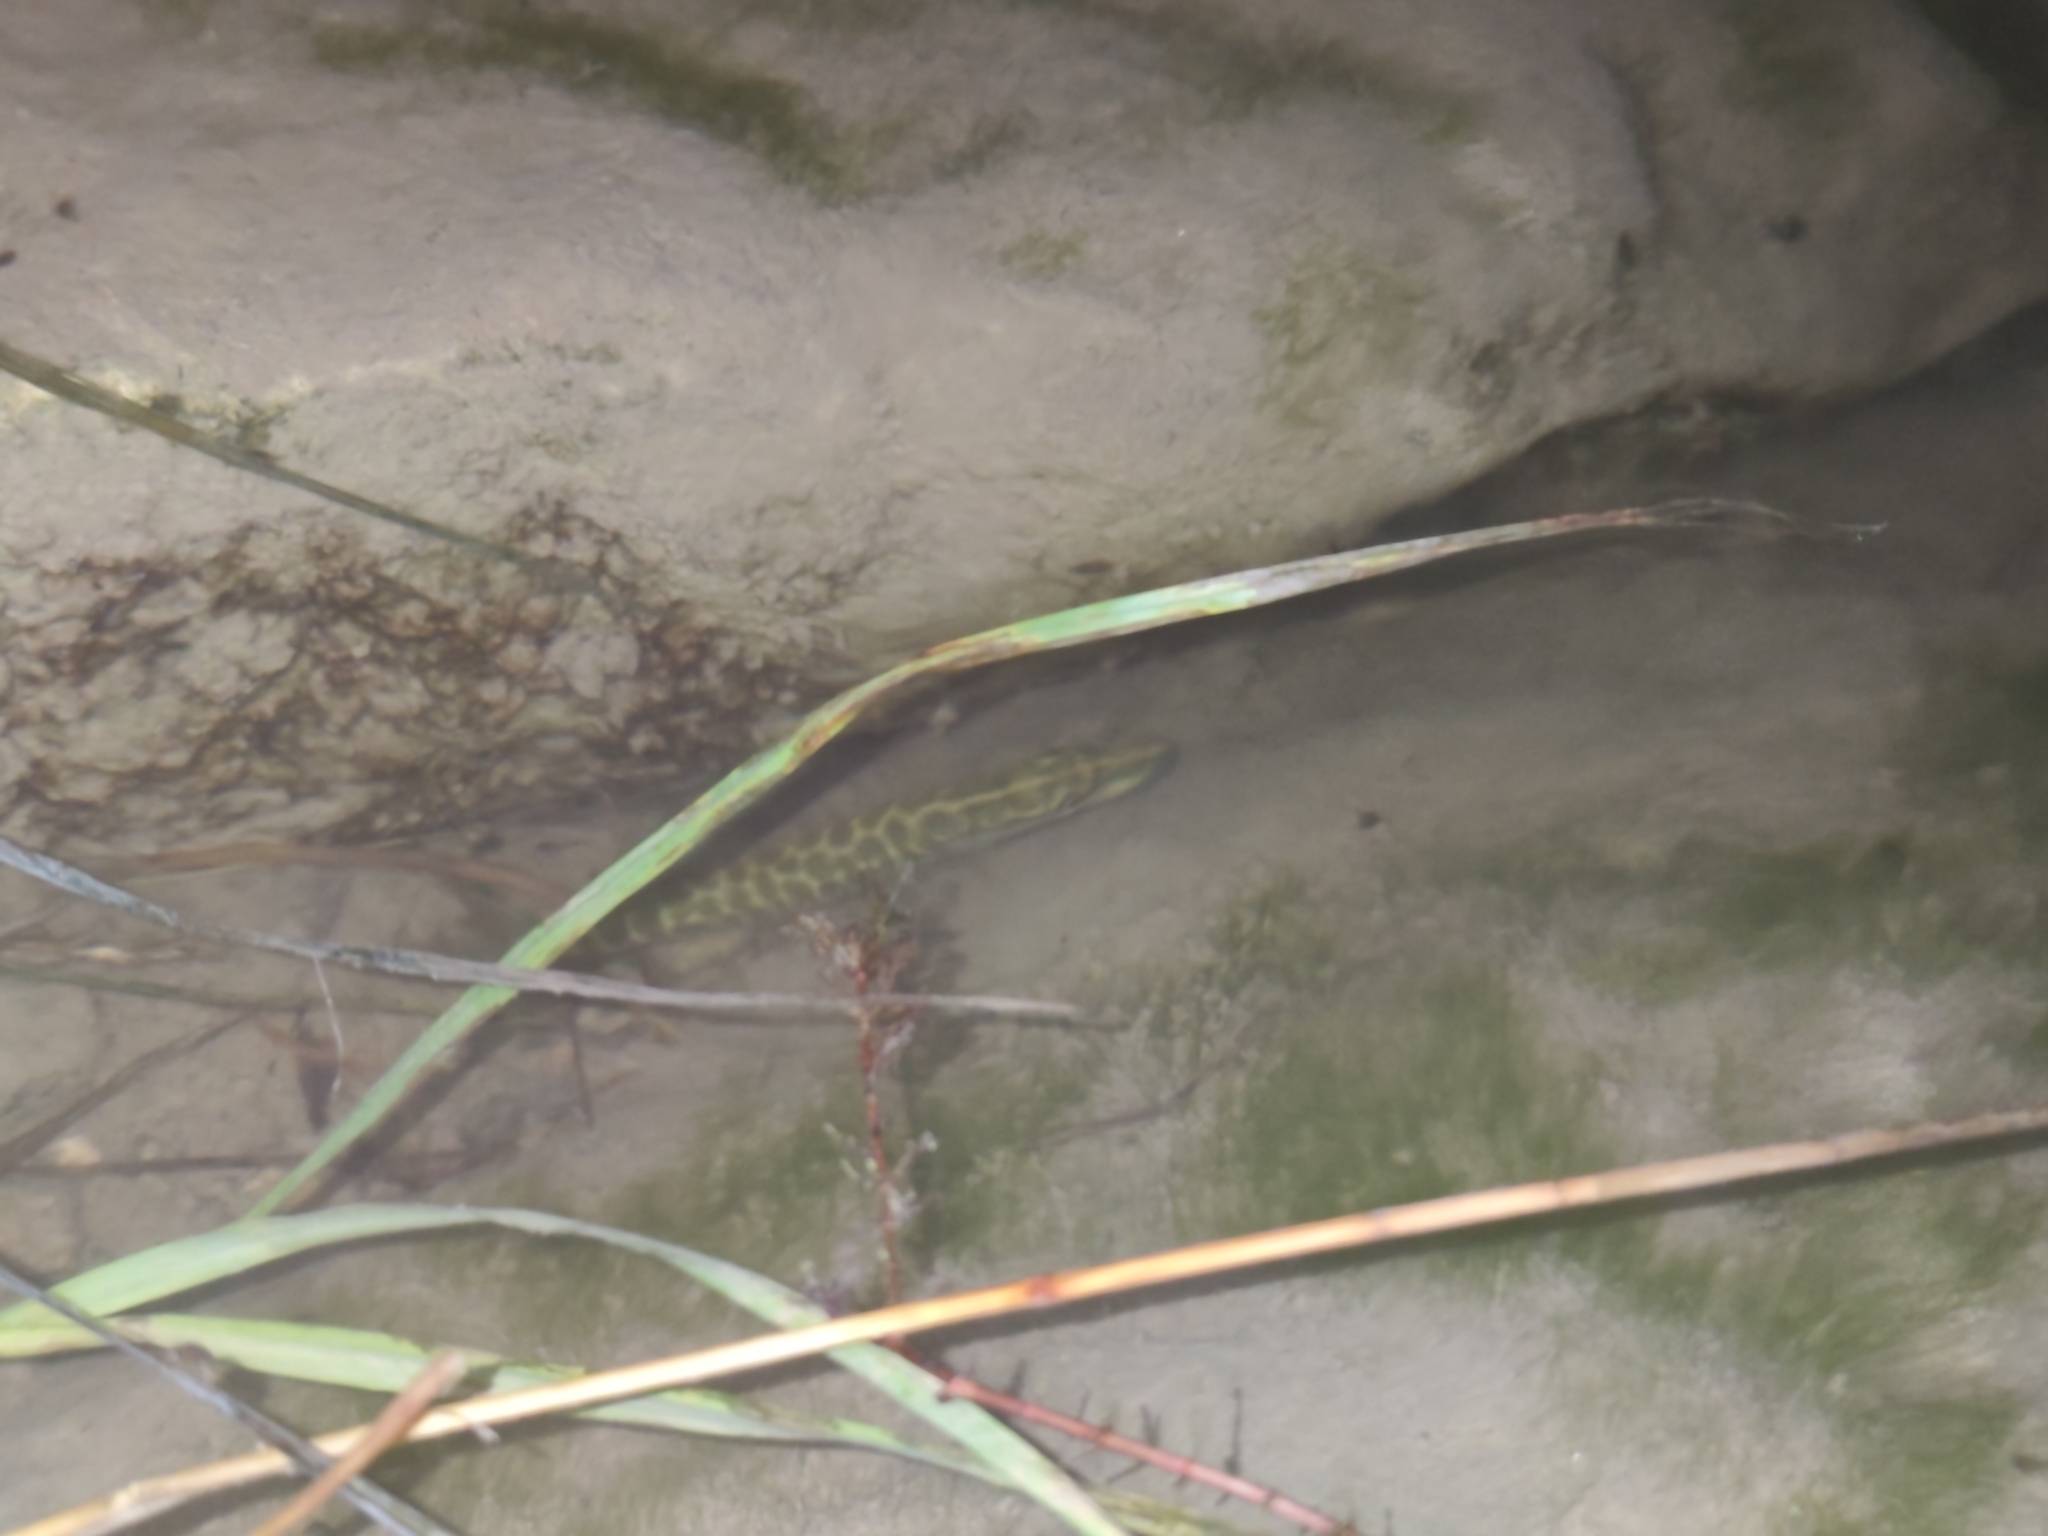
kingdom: Animalia
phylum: Chordata
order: Esociformes
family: Esocidae
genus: Esox
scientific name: Esox lucius
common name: Northern pike
